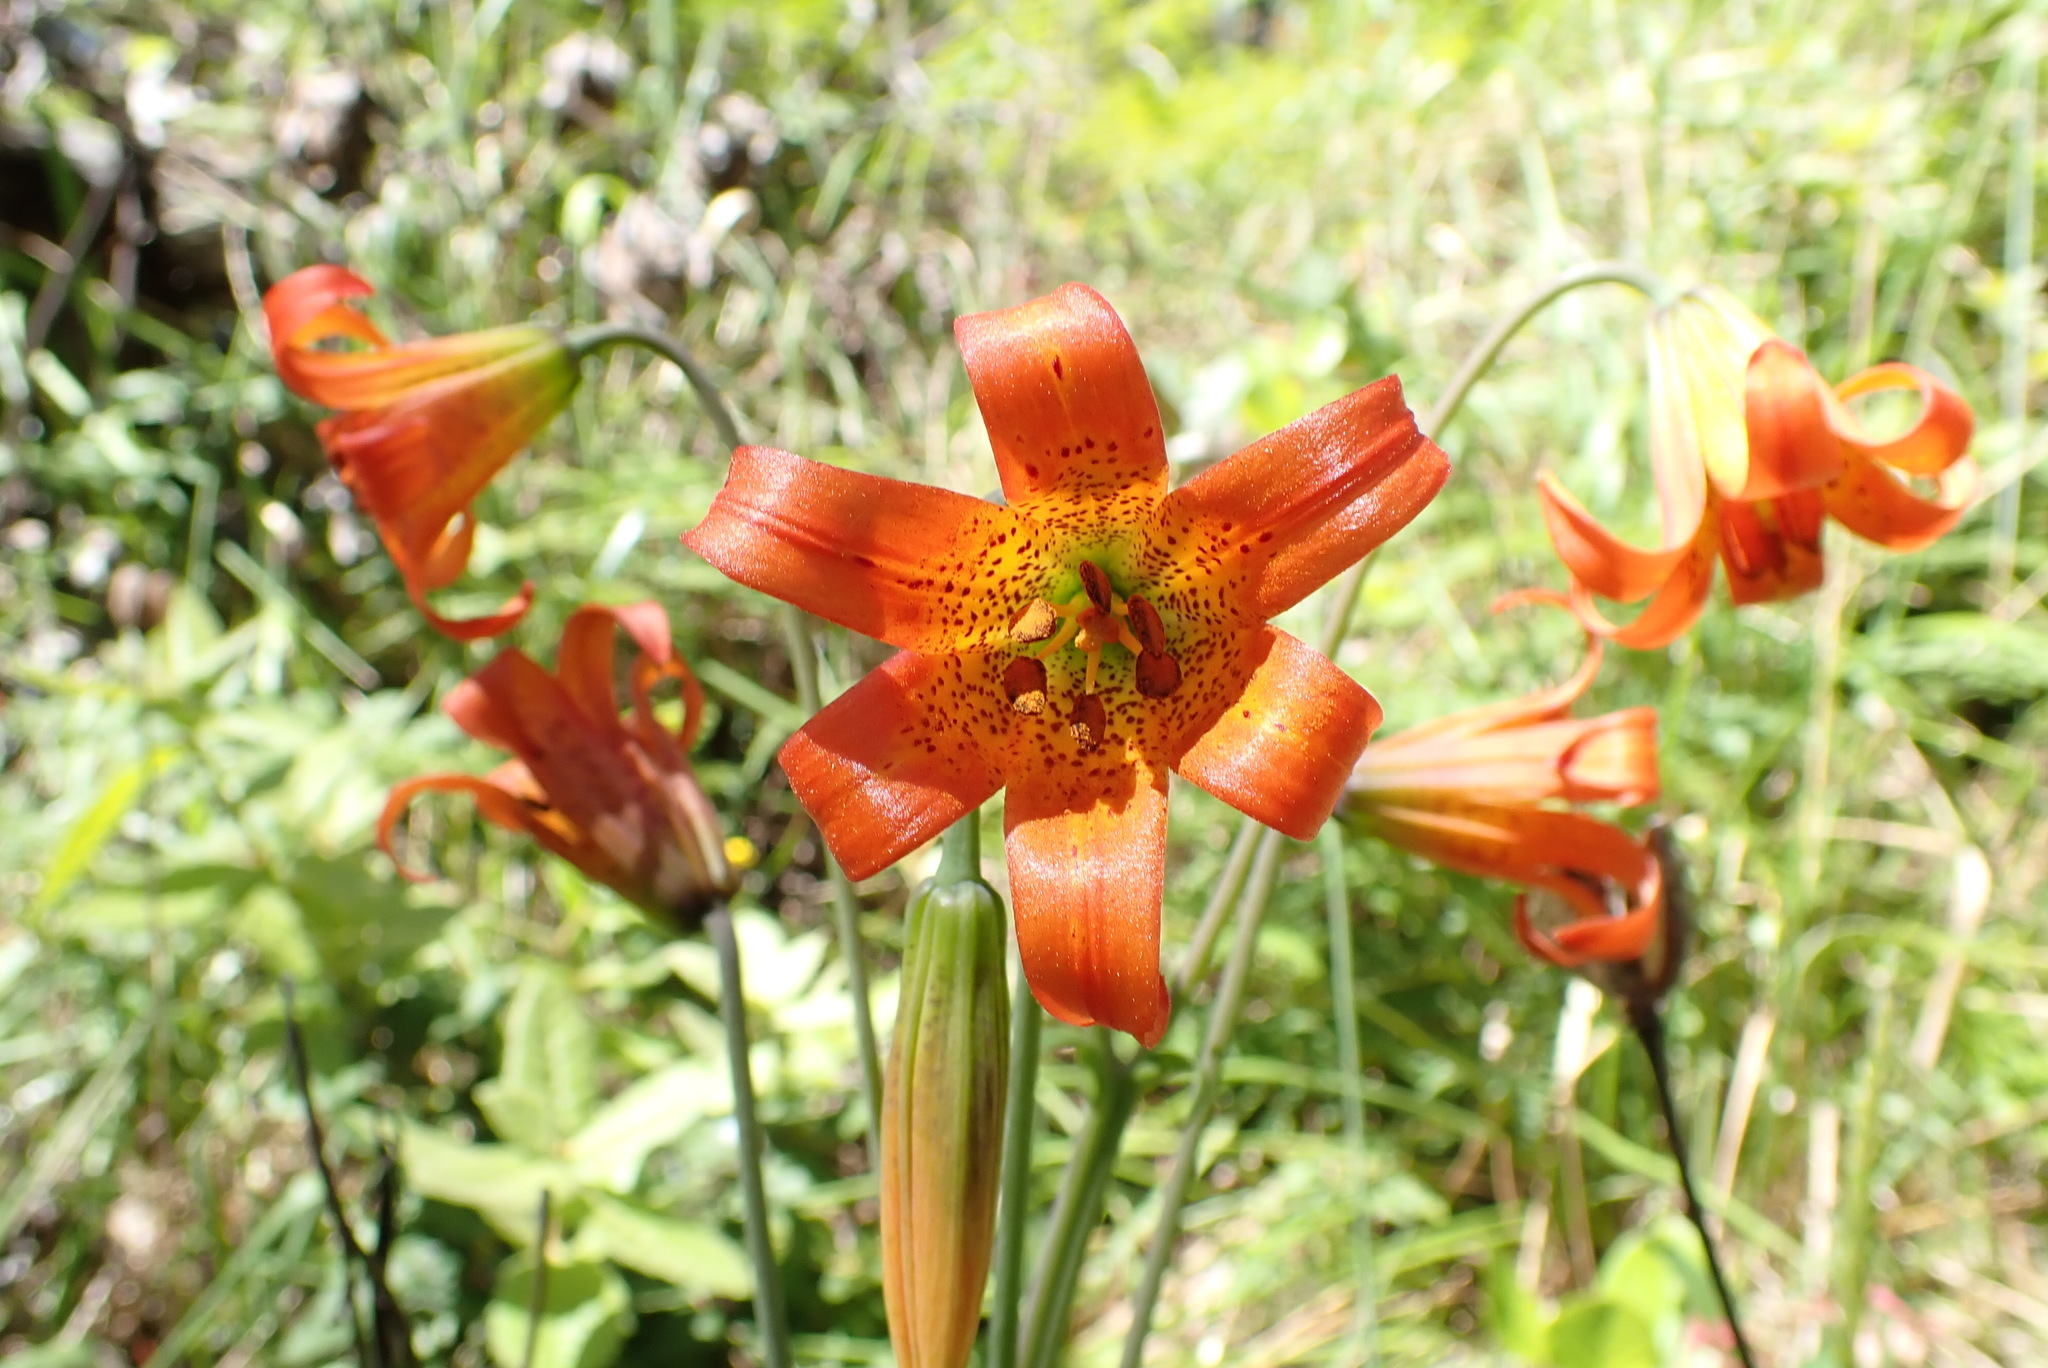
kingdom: Plantae
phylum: Tracheophyta
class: Liliopsida
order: Liliales
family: Liliaceae
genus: Lilium
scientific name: Lilium maritimum
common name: Coastal lily
